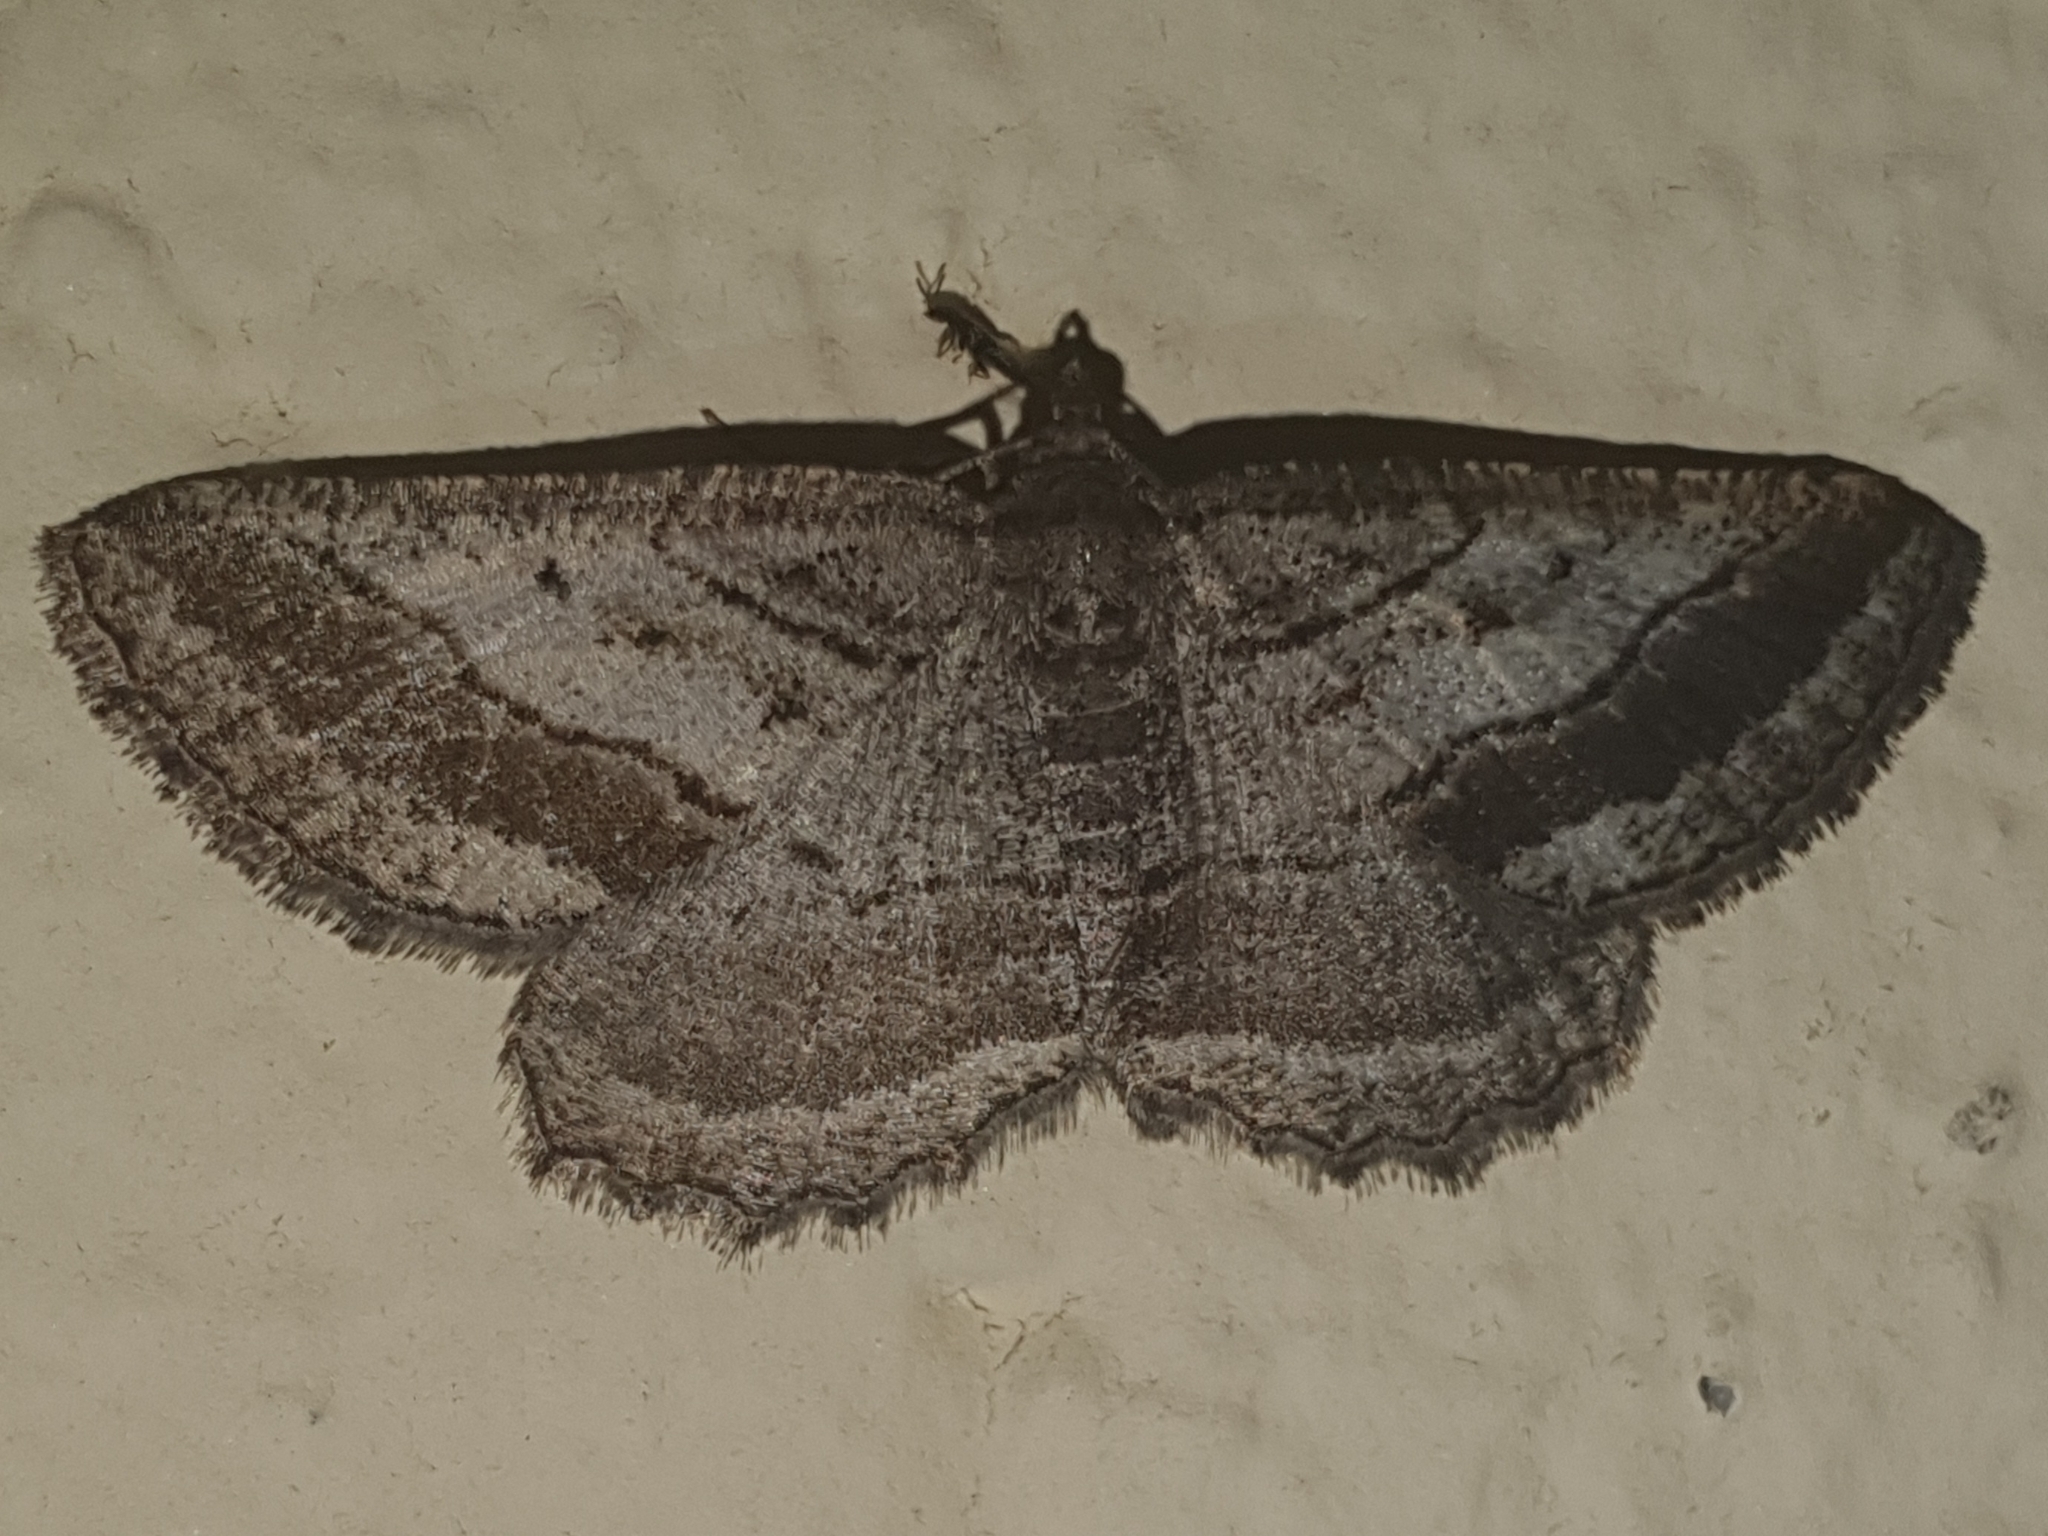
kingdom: Animalia
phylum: Arthropoda
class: Insecta
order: Lepidoptera
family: Geometridae
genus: Rhoptria
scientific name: Rhoptria asperaria
